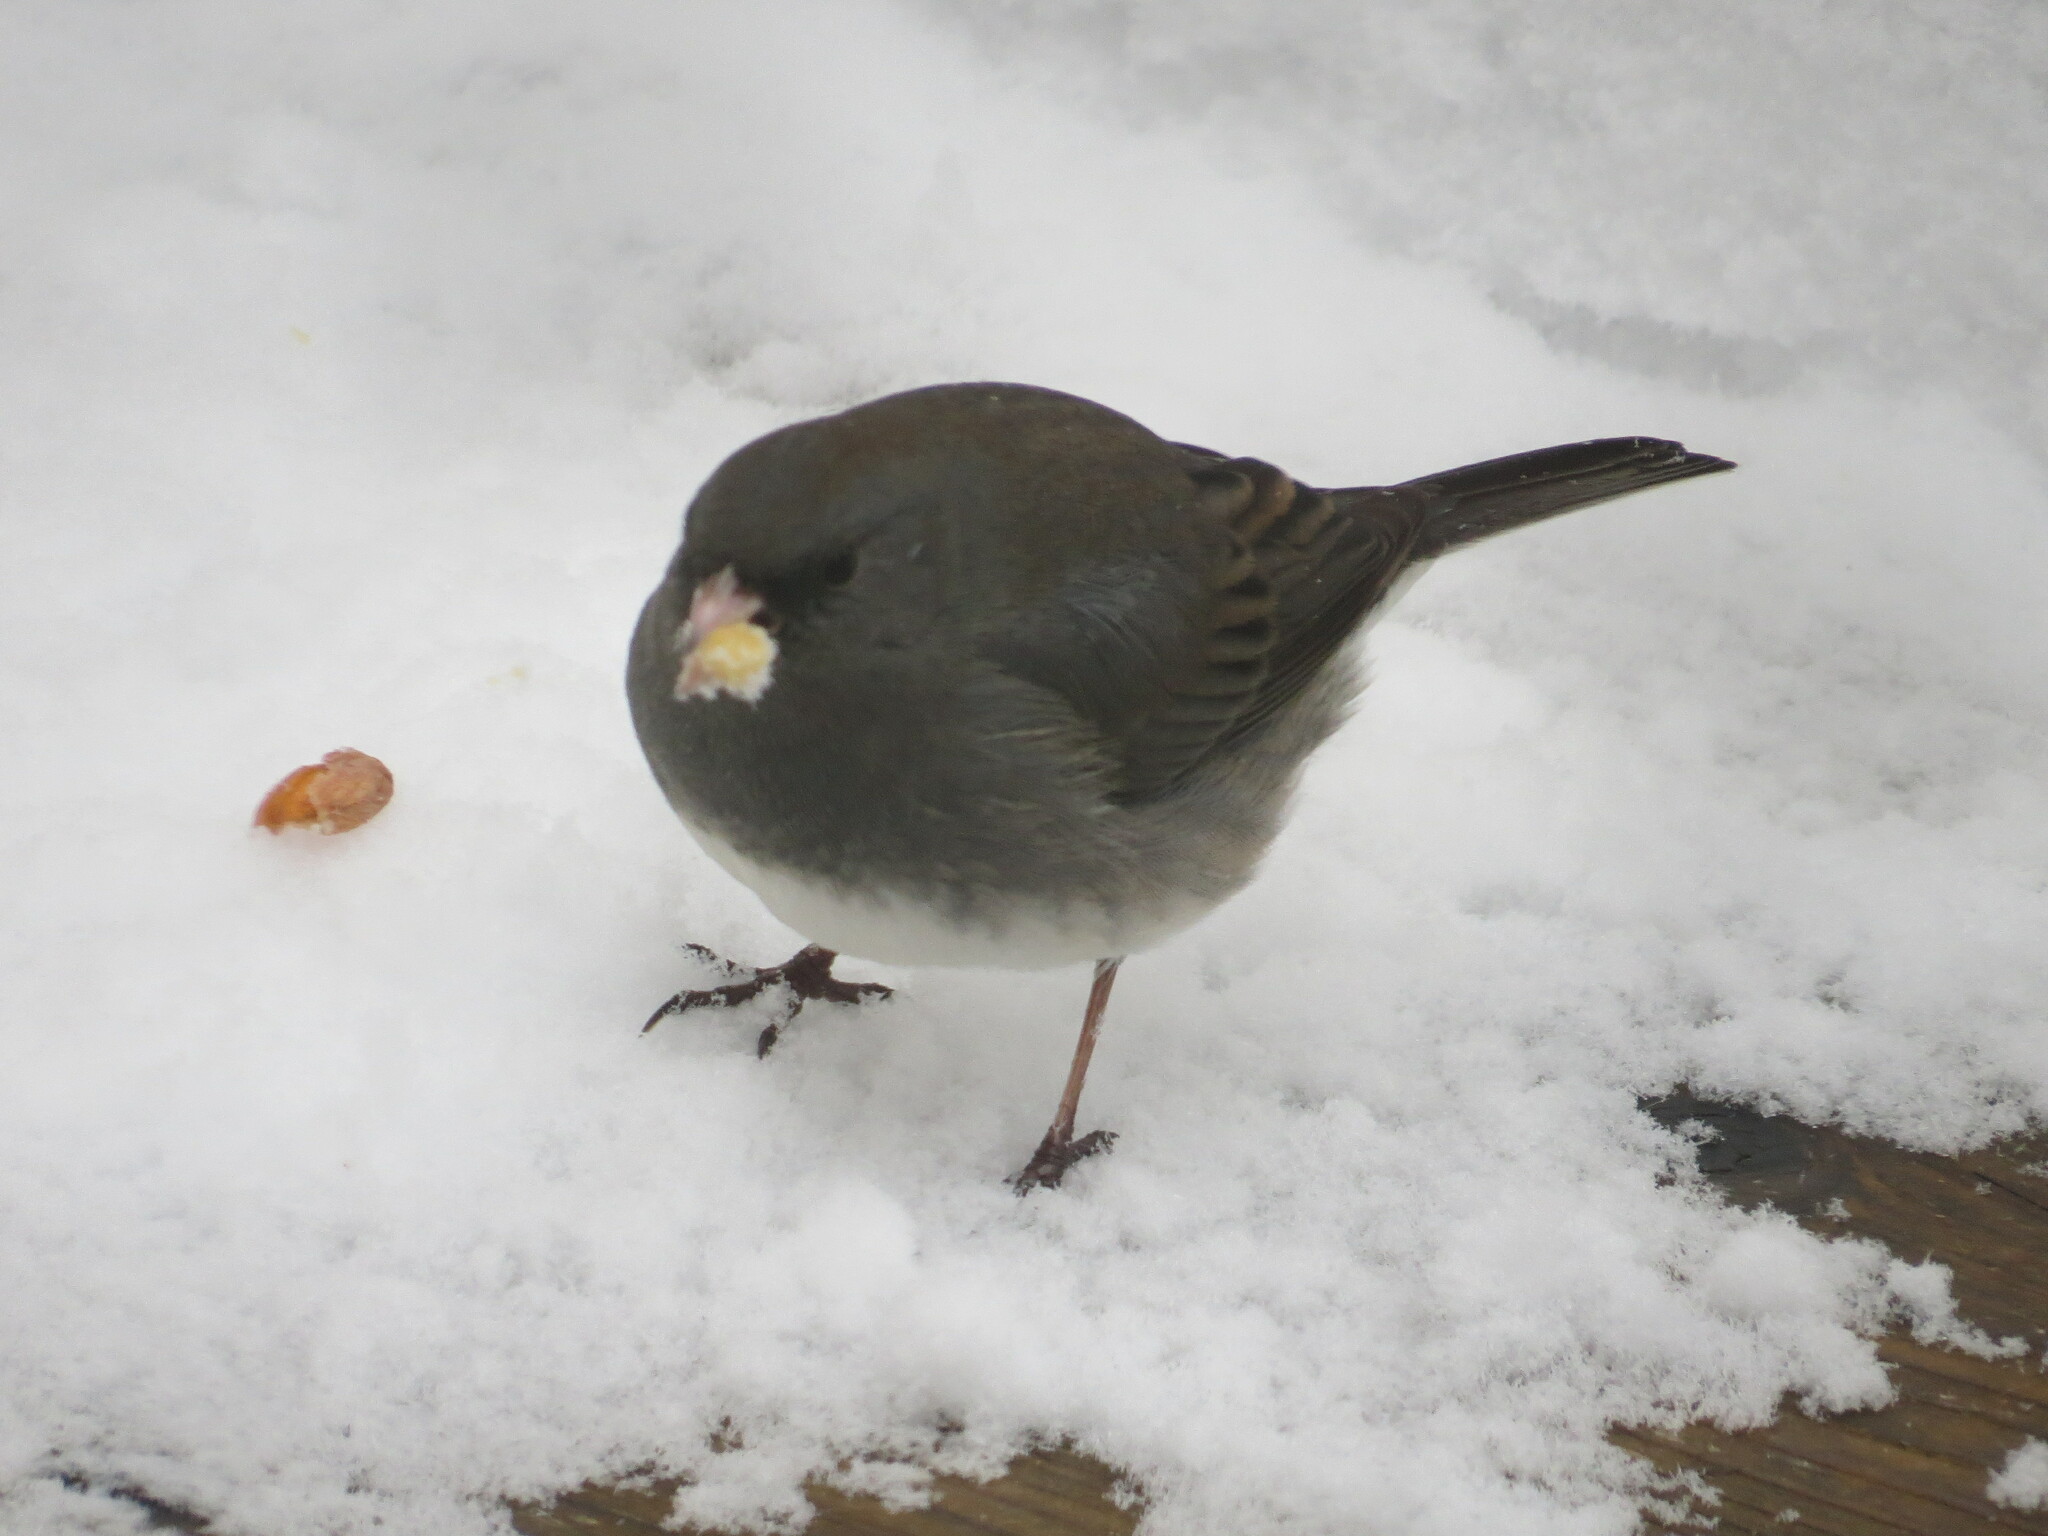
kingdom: Animalia
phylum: Chordata
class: Aves
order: Passeriformes
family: Passerellidae
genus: Junco
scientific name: Junco hyemalis
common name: Dark-eyed junco
